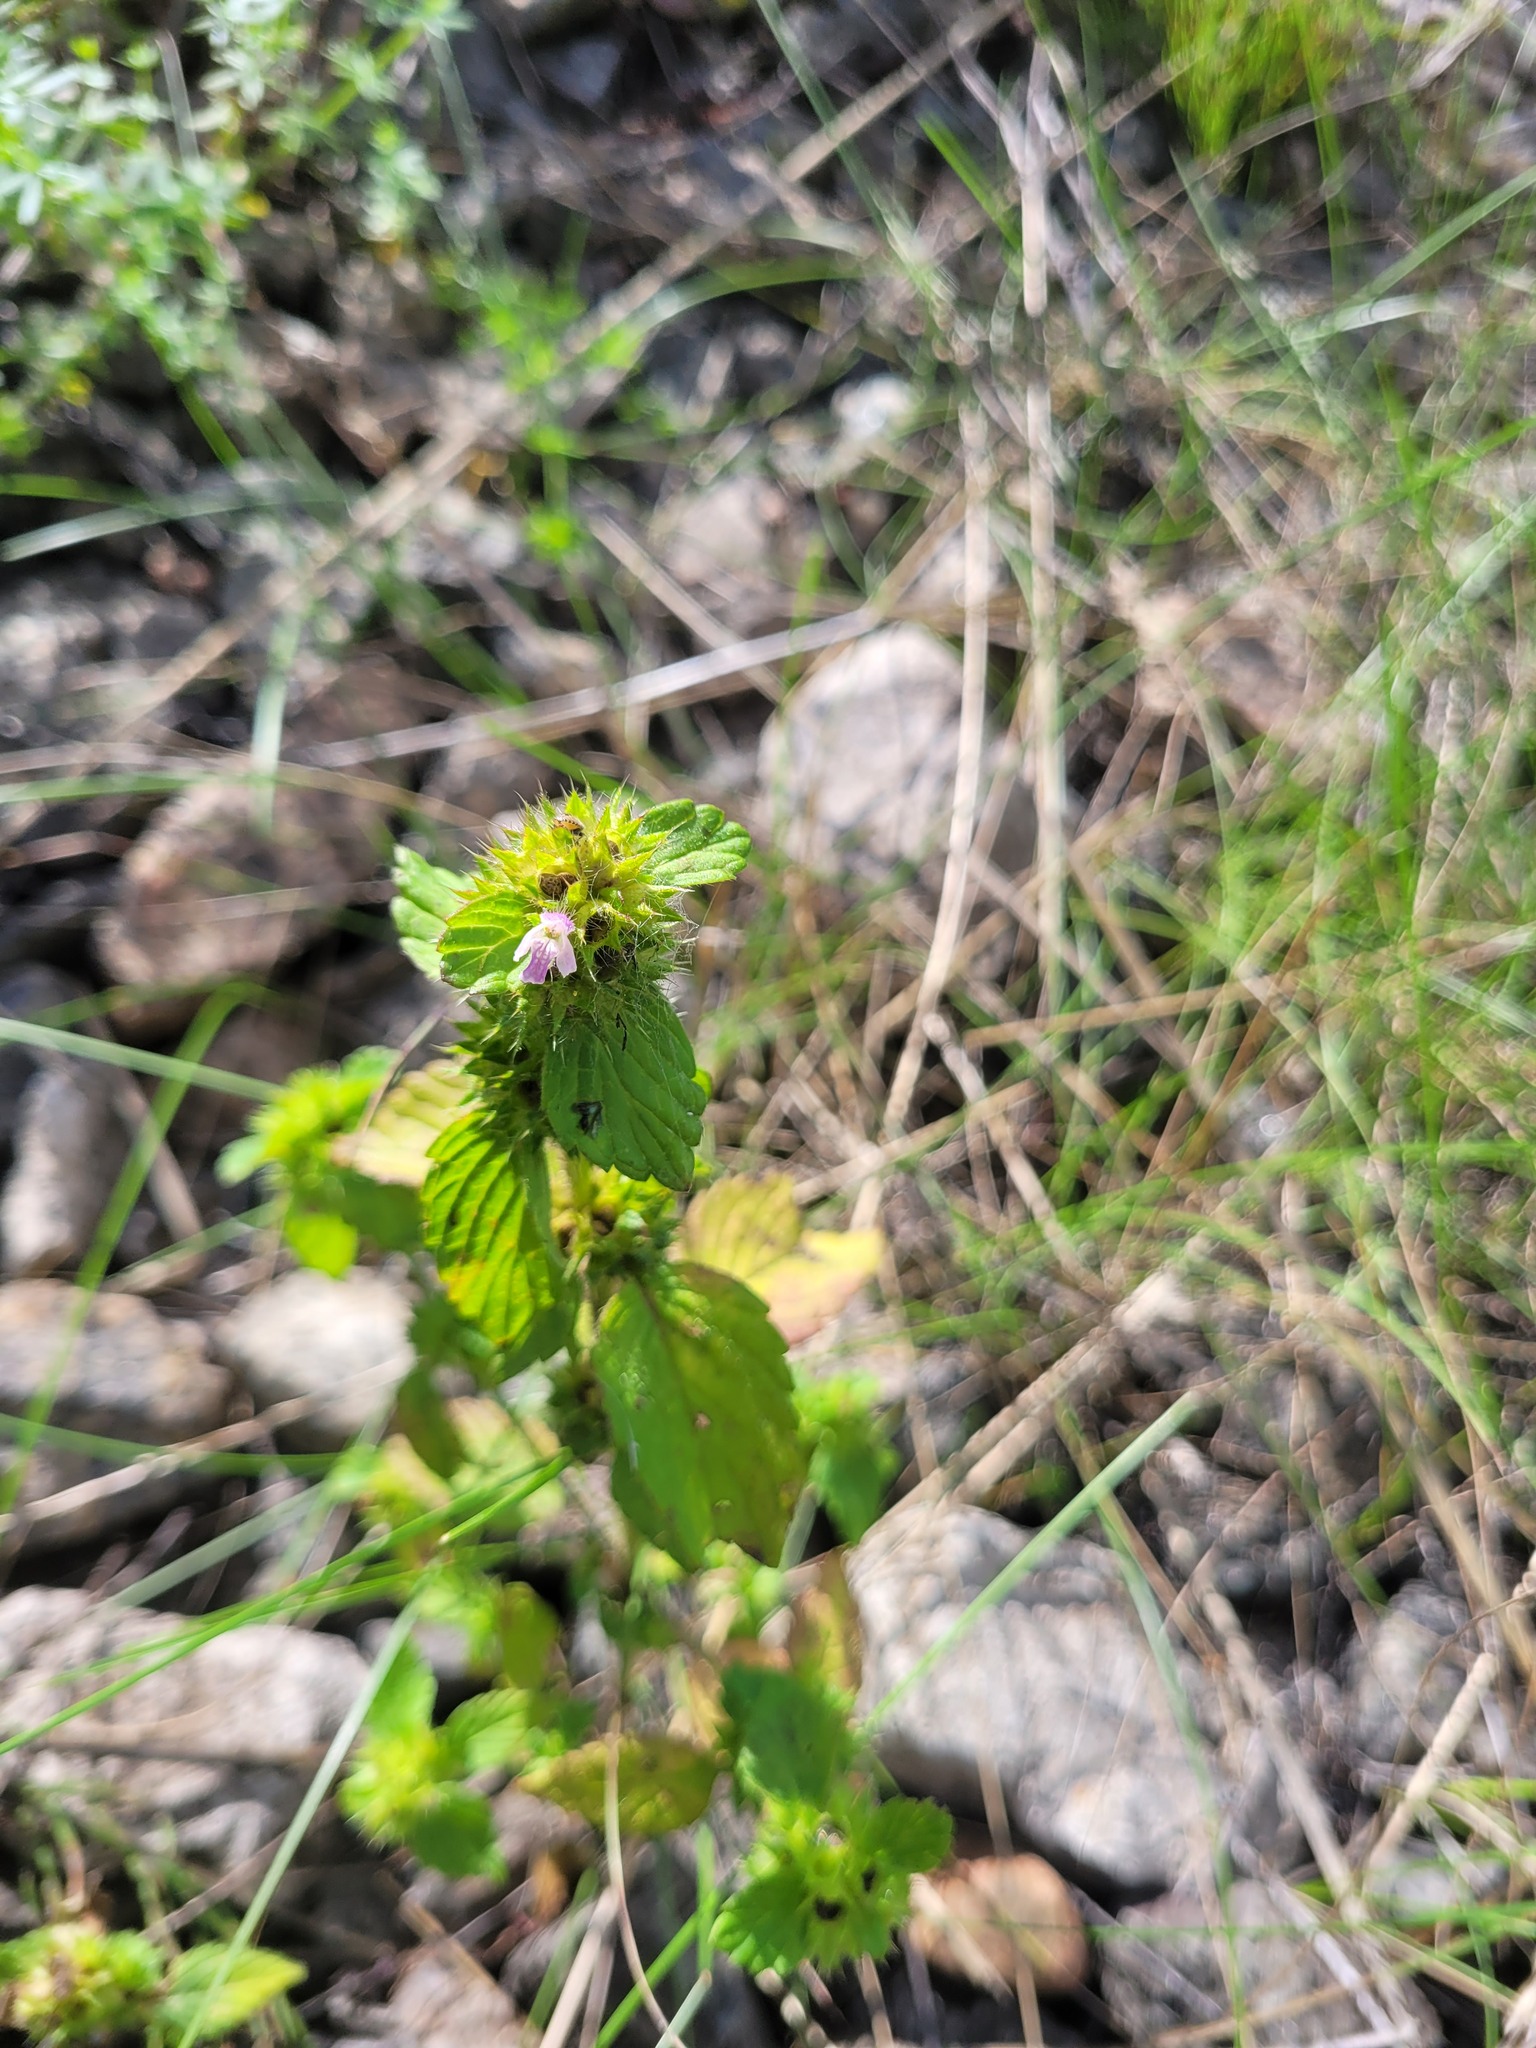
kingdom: Plantae
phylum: Tracheophyta
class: Magnoliopsida
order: Lamiales
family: Lamiaceae
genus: Galeopsis
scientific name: Galeopsis bifida
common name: Bifid hemp-nettle
